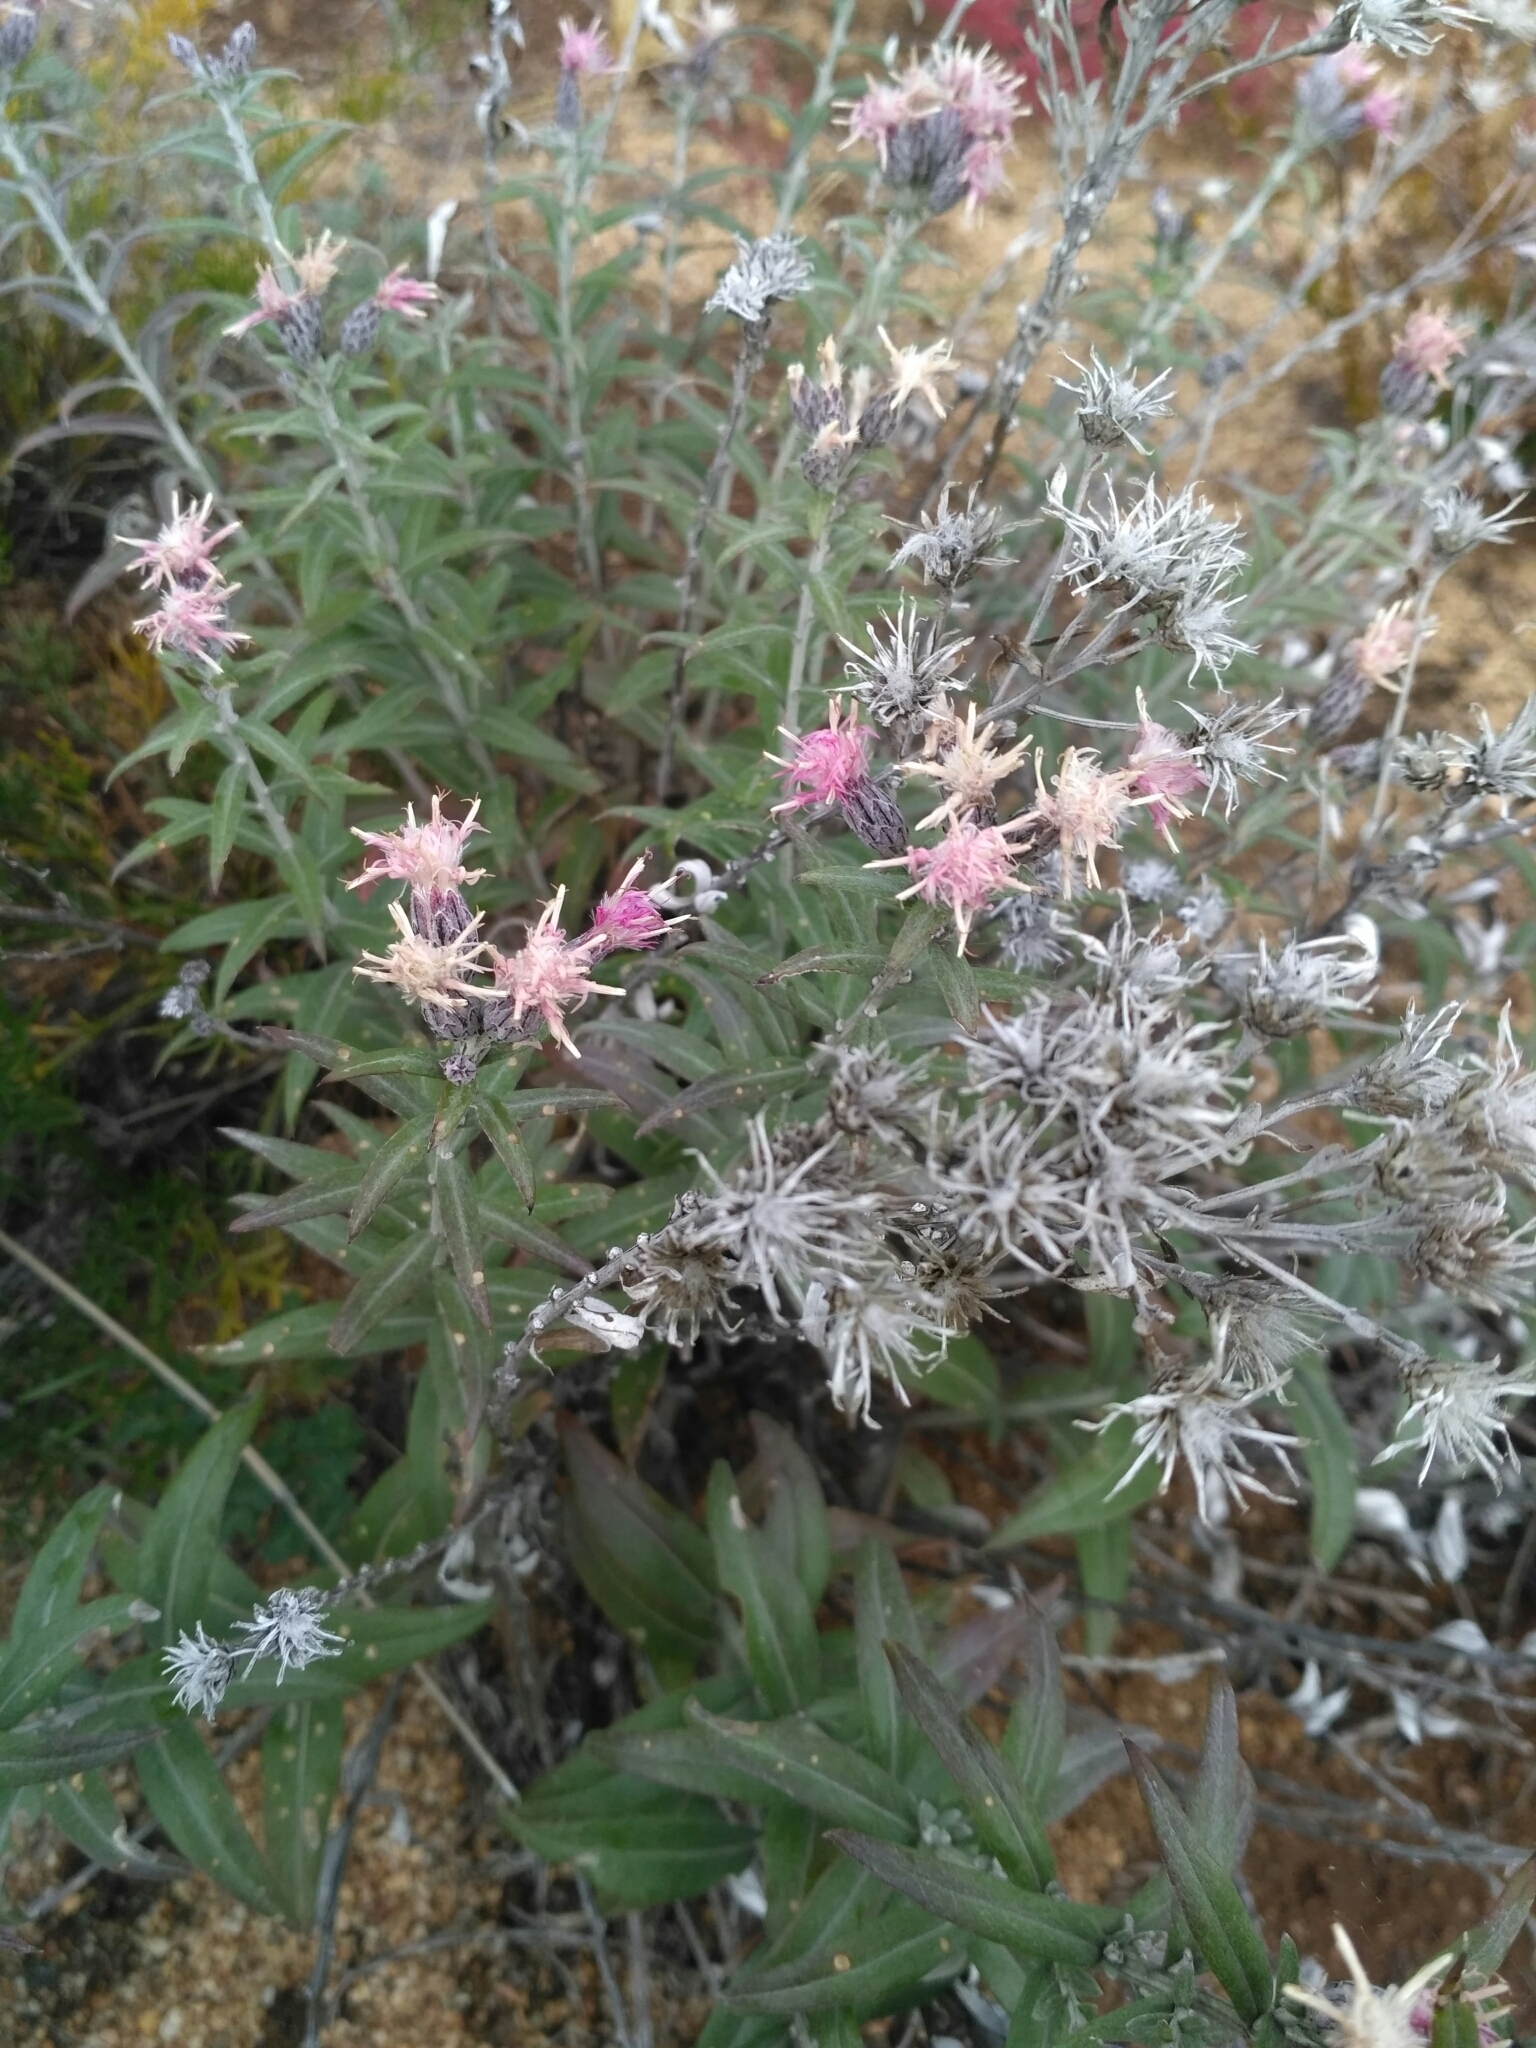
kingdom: Plantae
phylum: Tracheophyta
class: Magnoliopsida
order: Asterales
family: Asteraceae
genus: Saussurea
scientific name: Saussurea salicifolia
